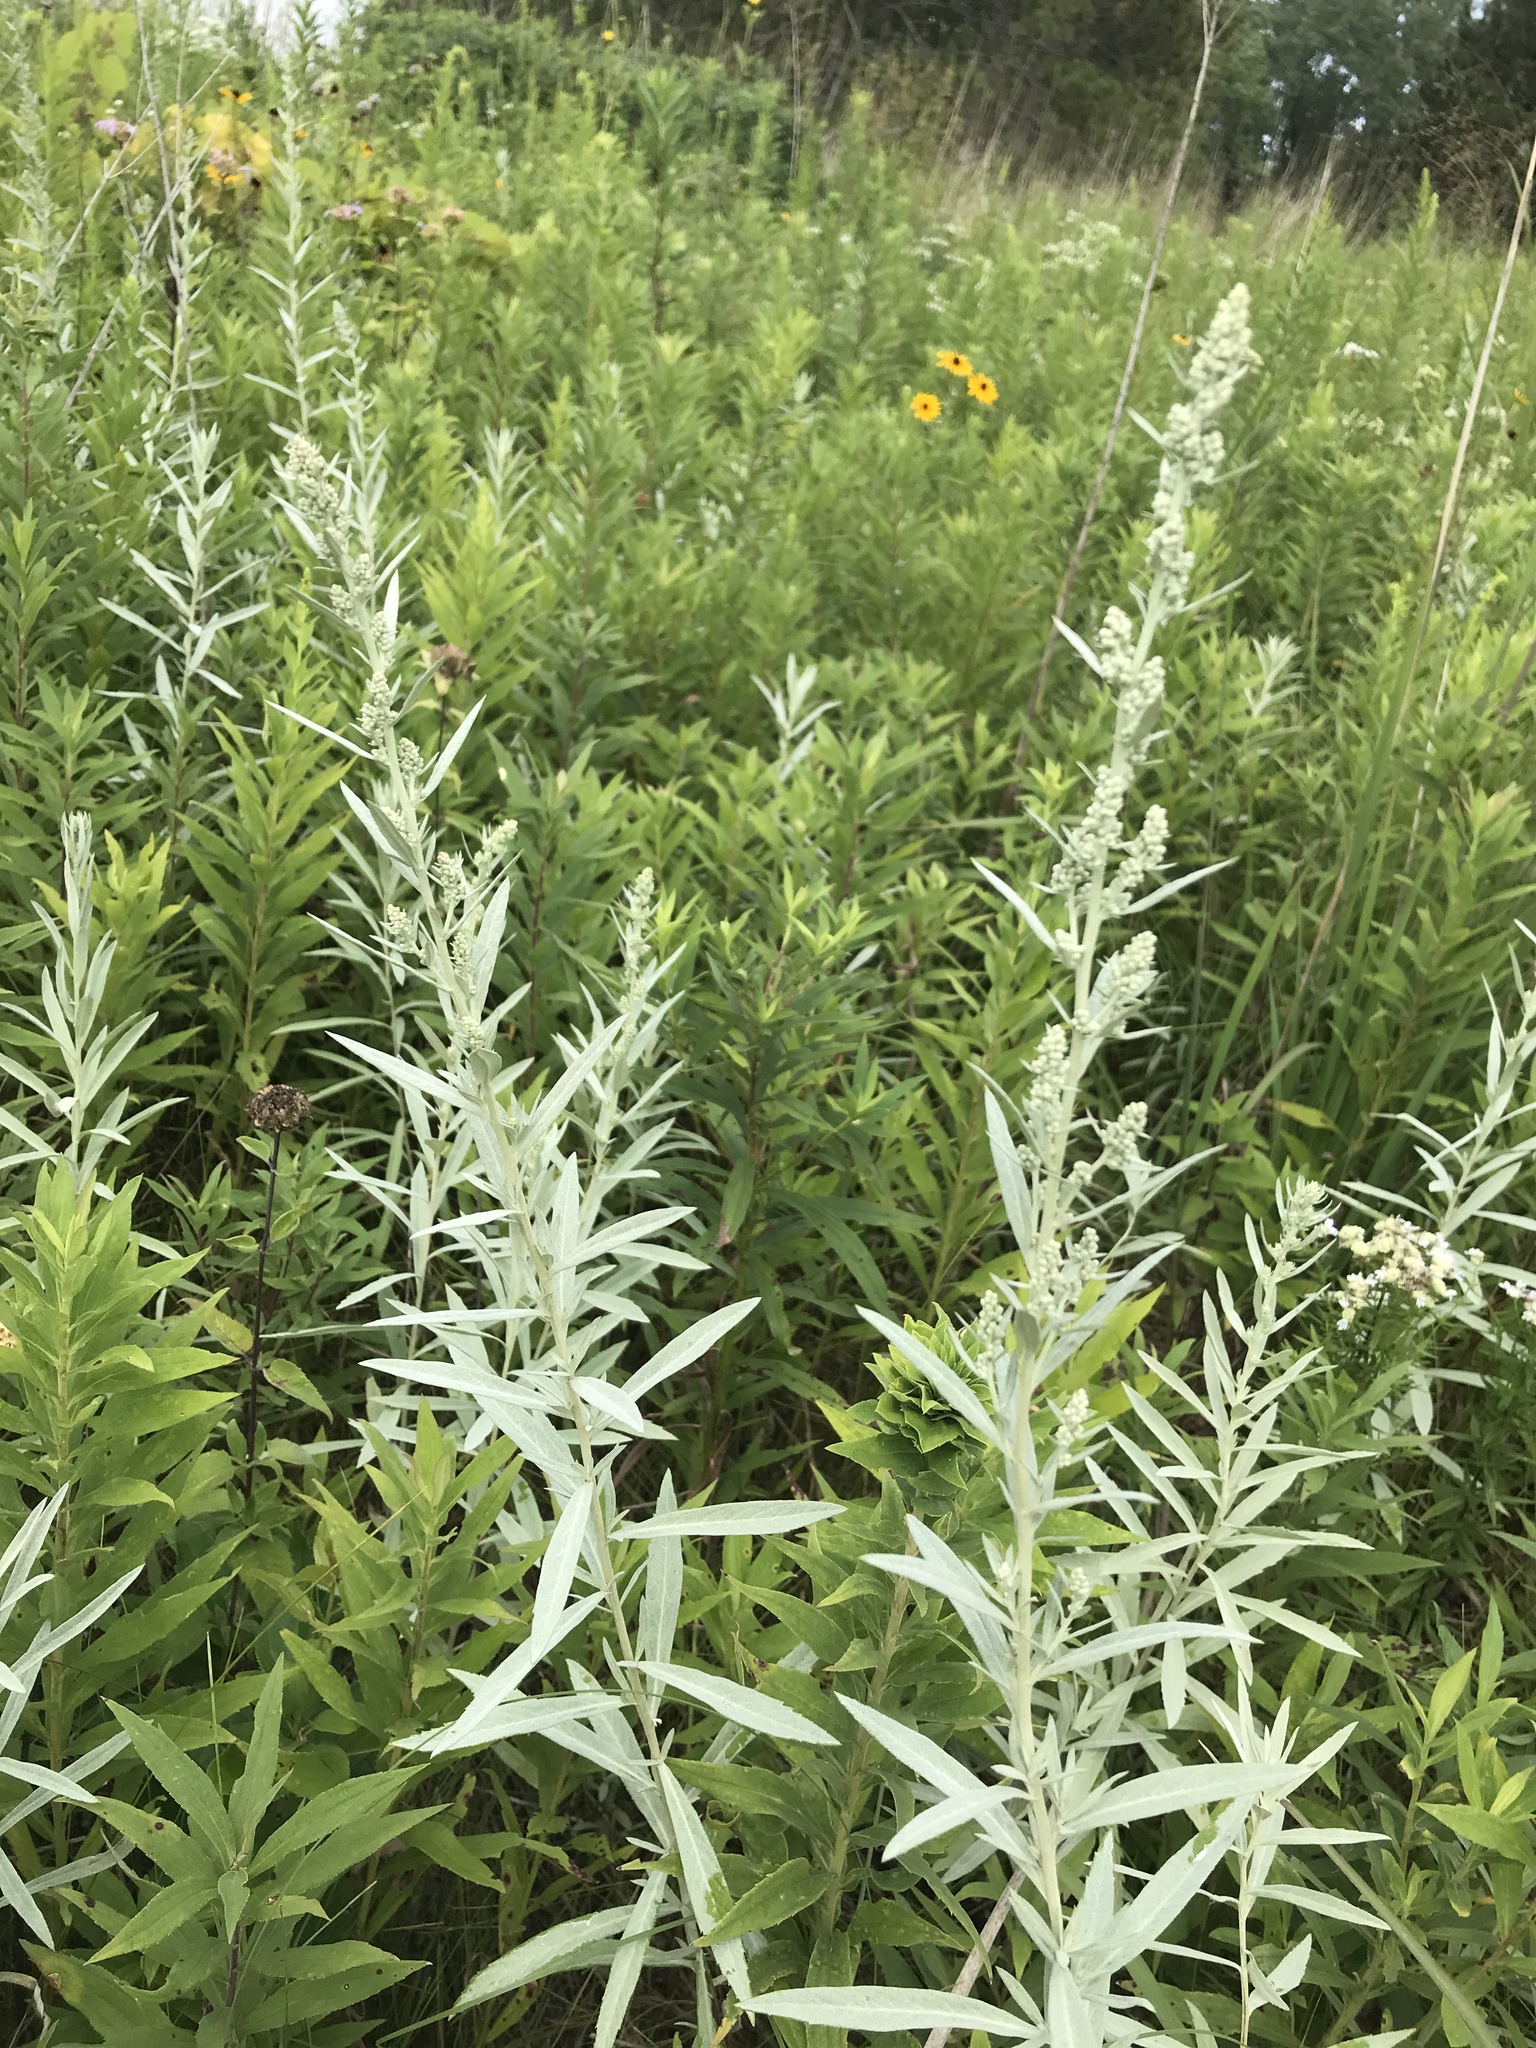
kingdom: Plantae
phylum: Tracheophyta
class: Magnoliopsida
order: Asterales
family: Asteraceae
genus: Artemisia
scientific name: Artemisia ludoviciana
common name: Western mugwort
